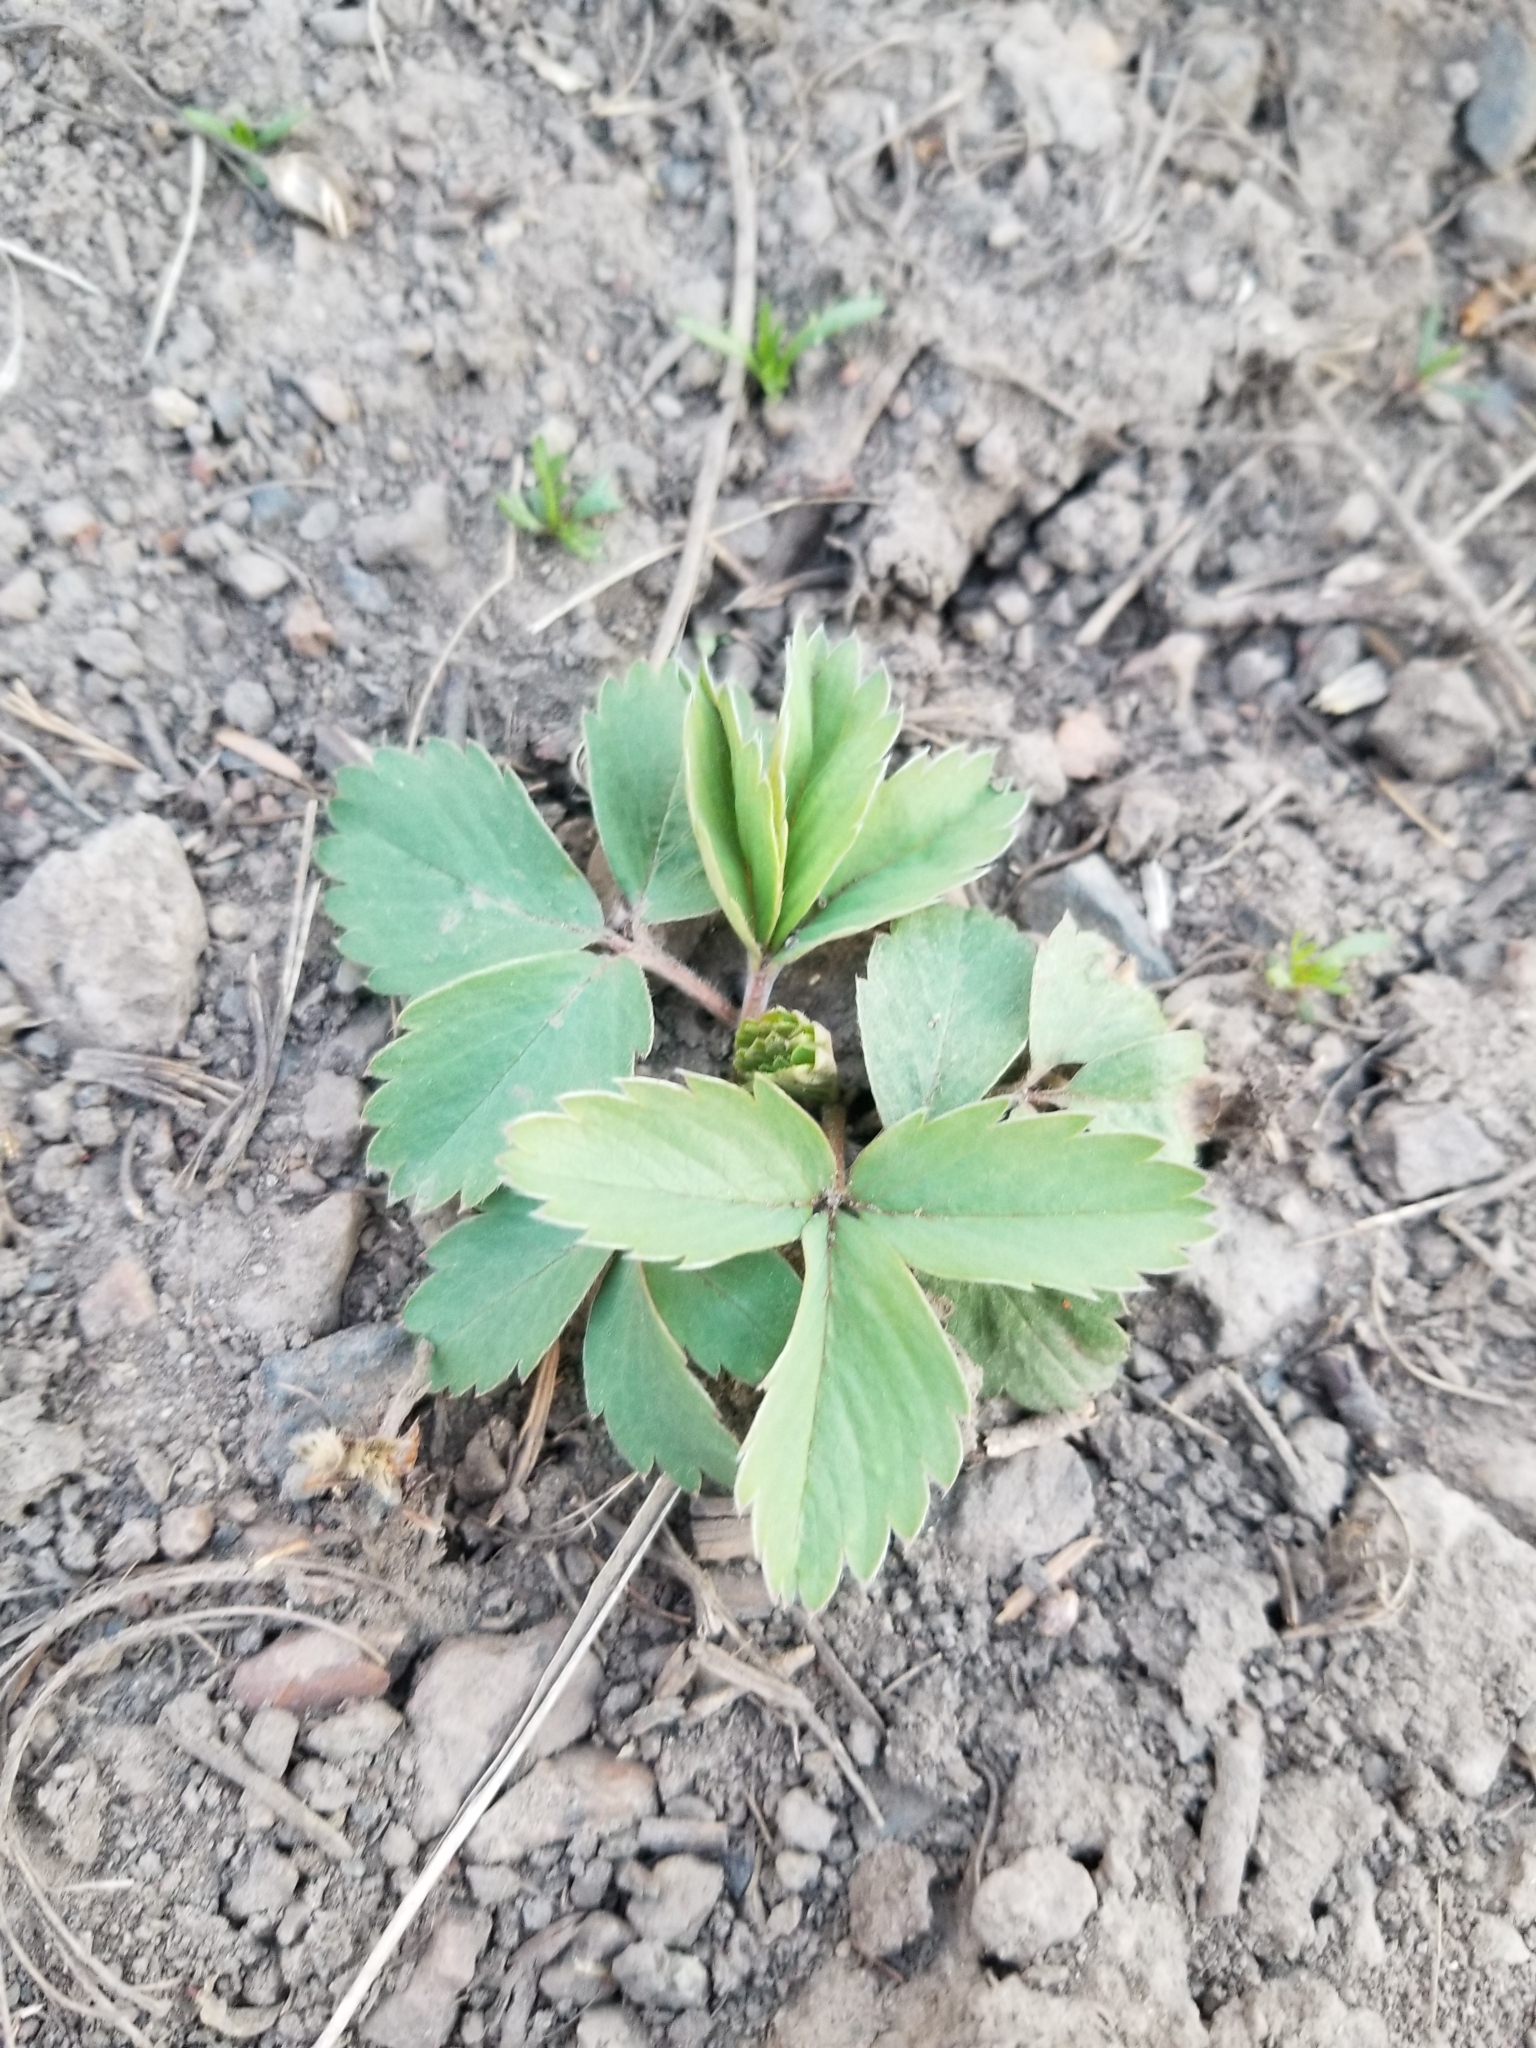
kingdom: Plantae
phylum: Tracheophyta
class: Magnoliopsida
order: Rosales
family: Rosaceae
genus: Fragaria
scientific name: Fragaria virginiana
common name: Thickleaved wild strawberry
